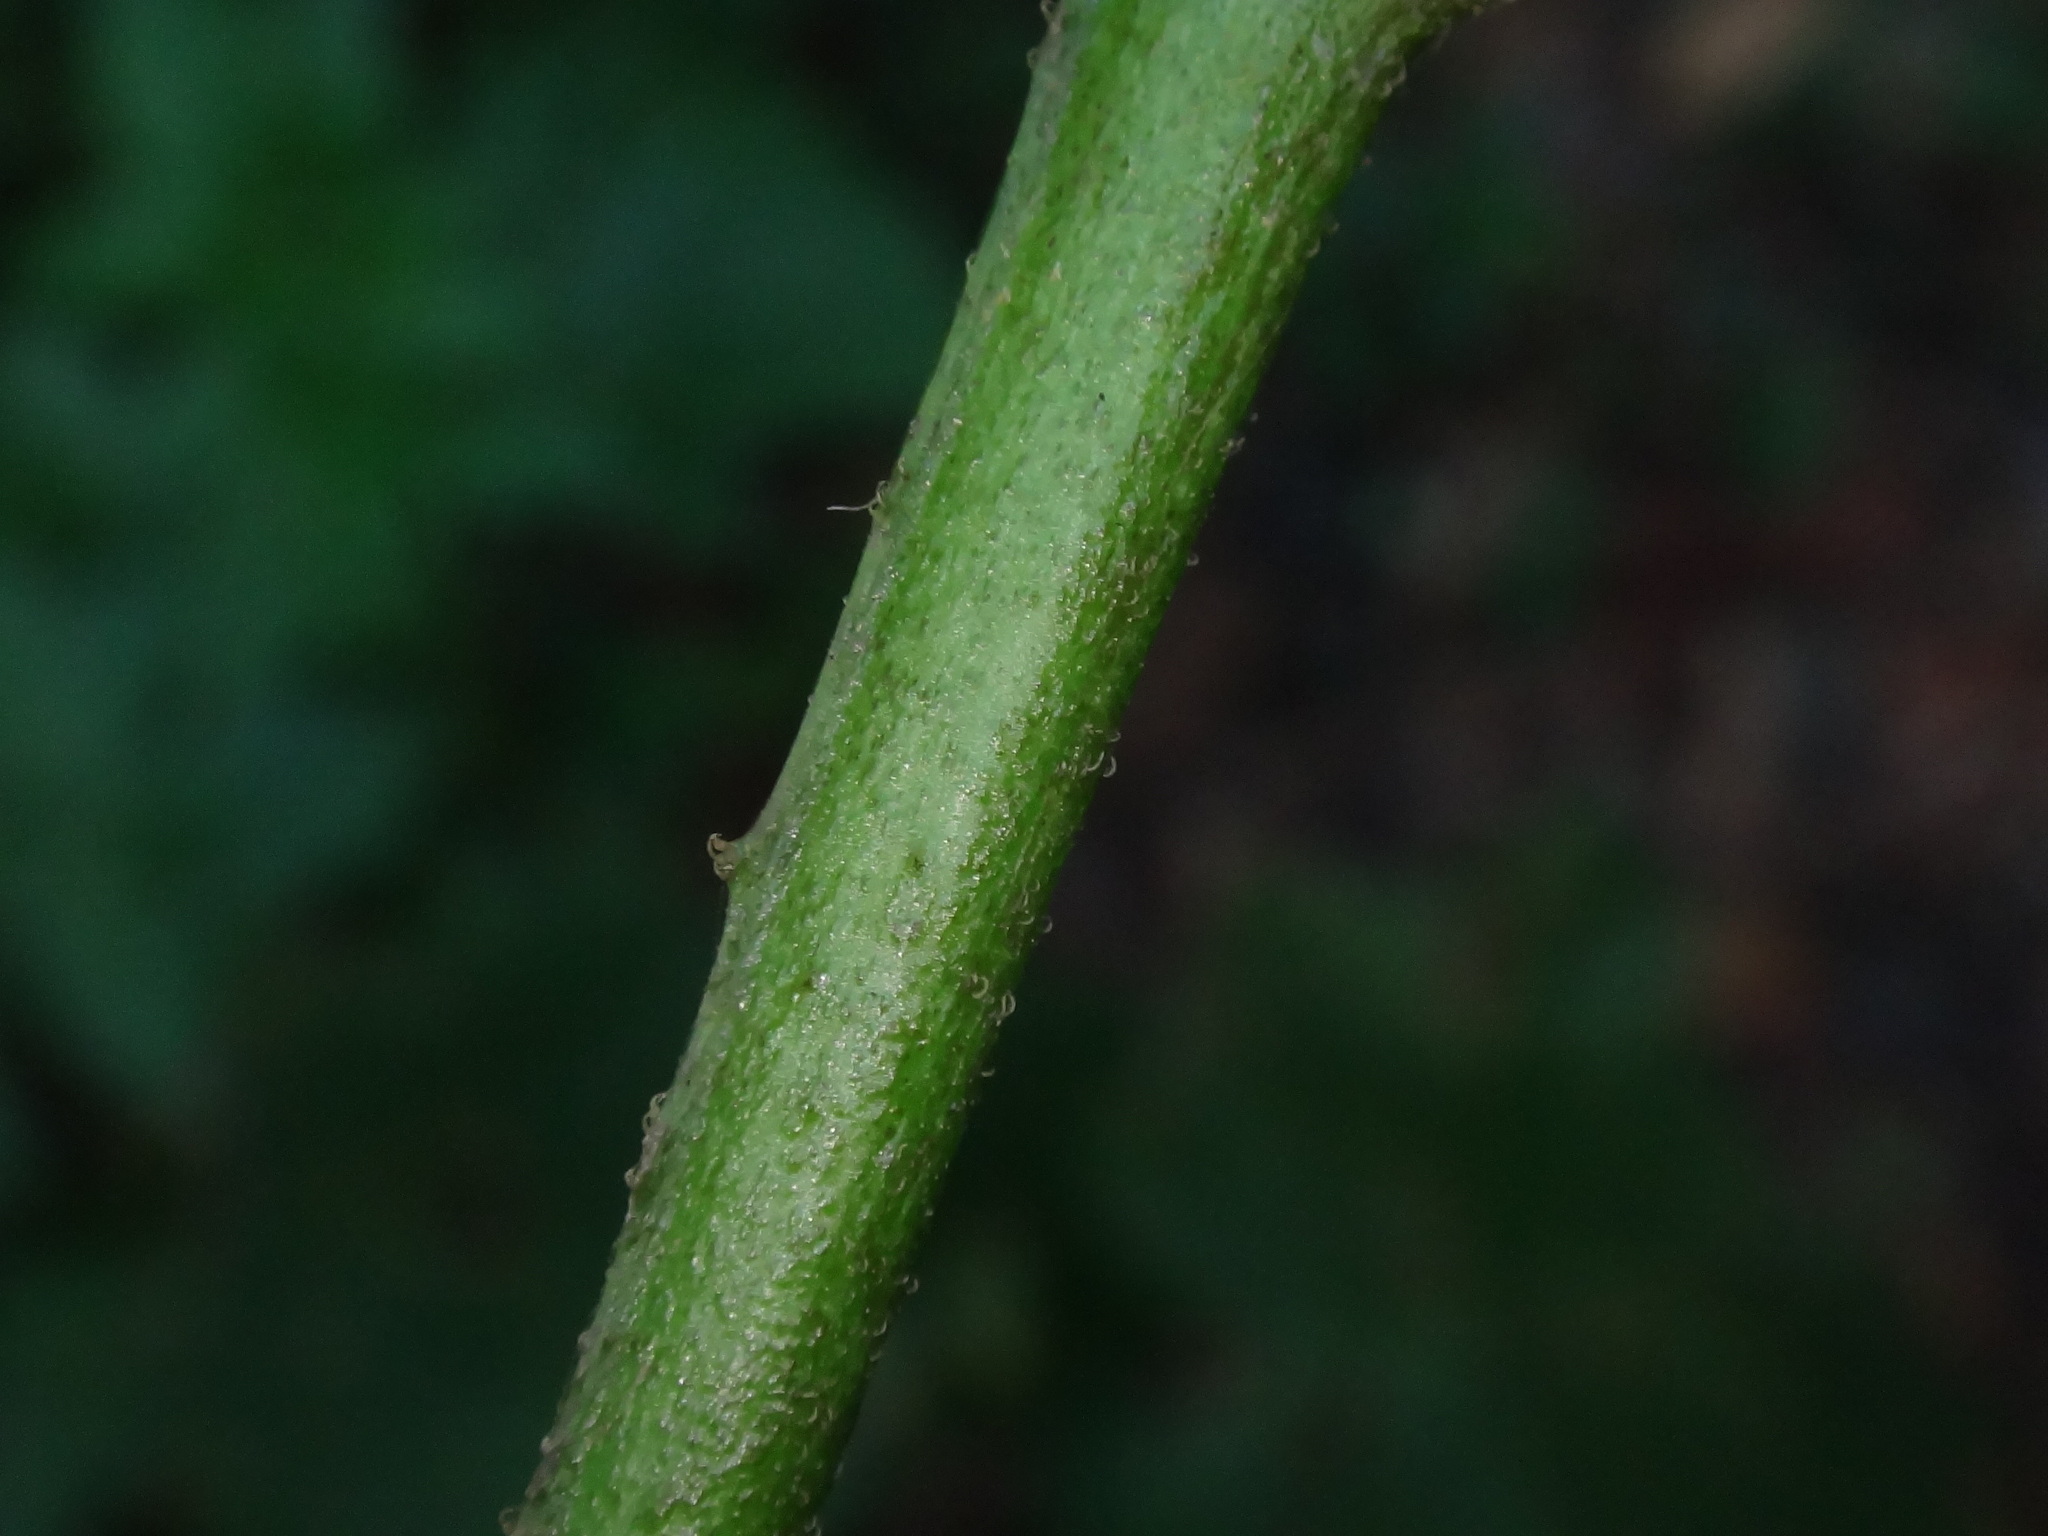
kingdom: Plantae
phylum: Tracheophyta
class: Magnoliopsida
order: Solanales
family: Solanaceae
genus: Solanum
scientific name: Solanum villosum
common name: Red nightshade
